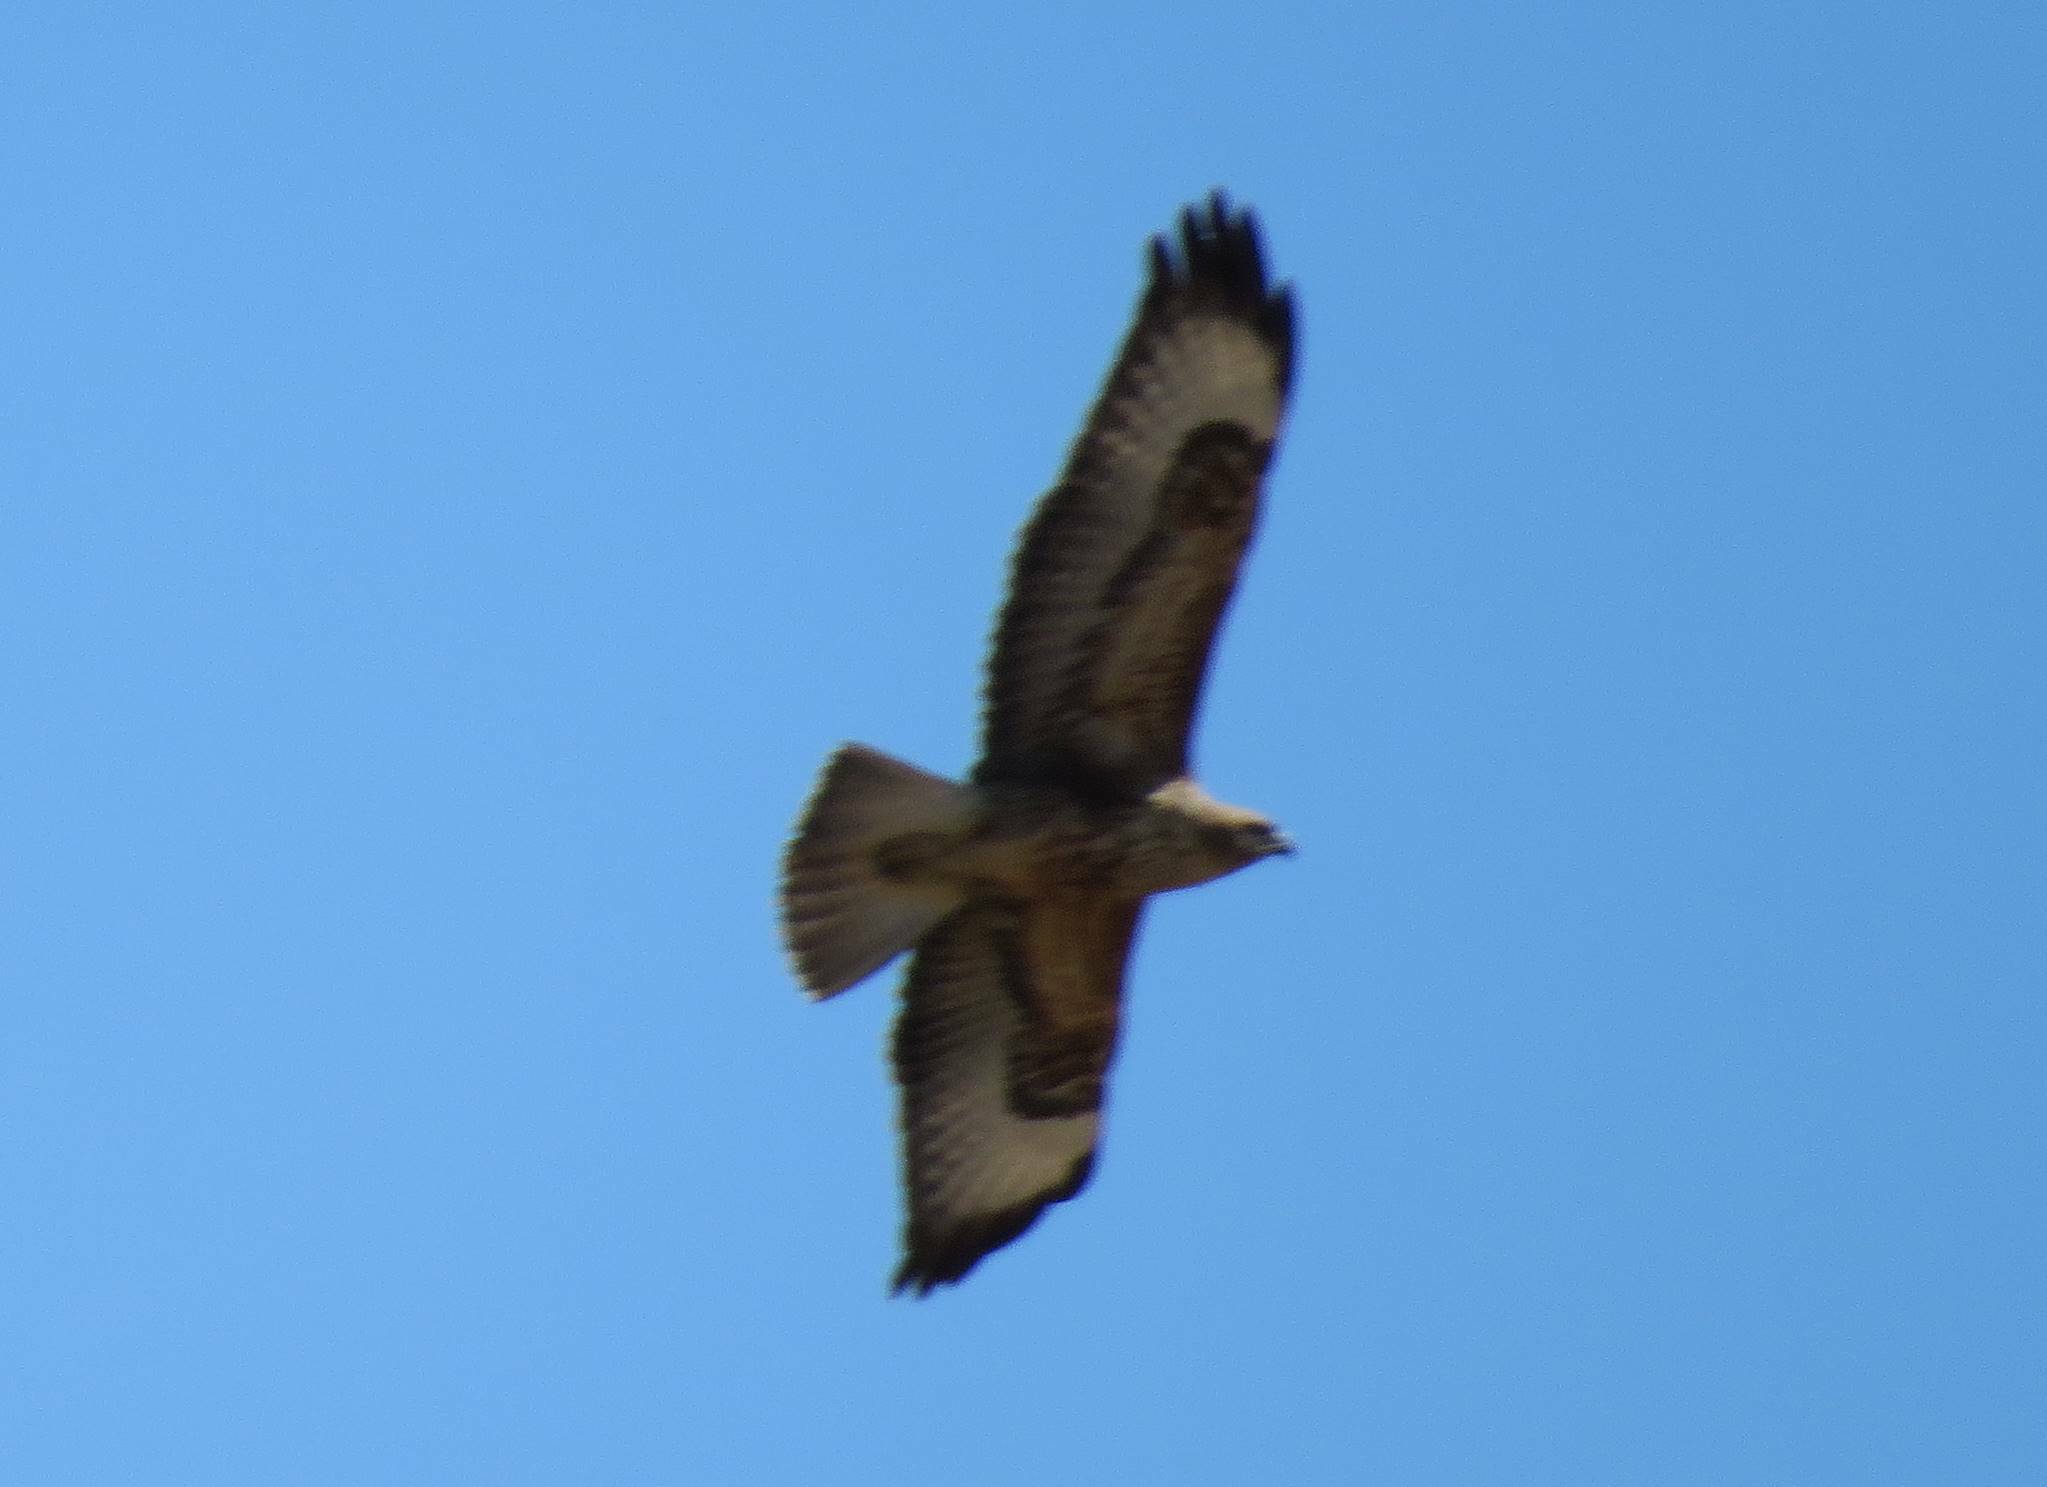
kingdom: Animalia
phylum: Chordata
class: Aves
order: Accipitriformes
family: Accipitridae
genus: Buteo
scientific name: Buteo buteo
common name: Common buzzard
